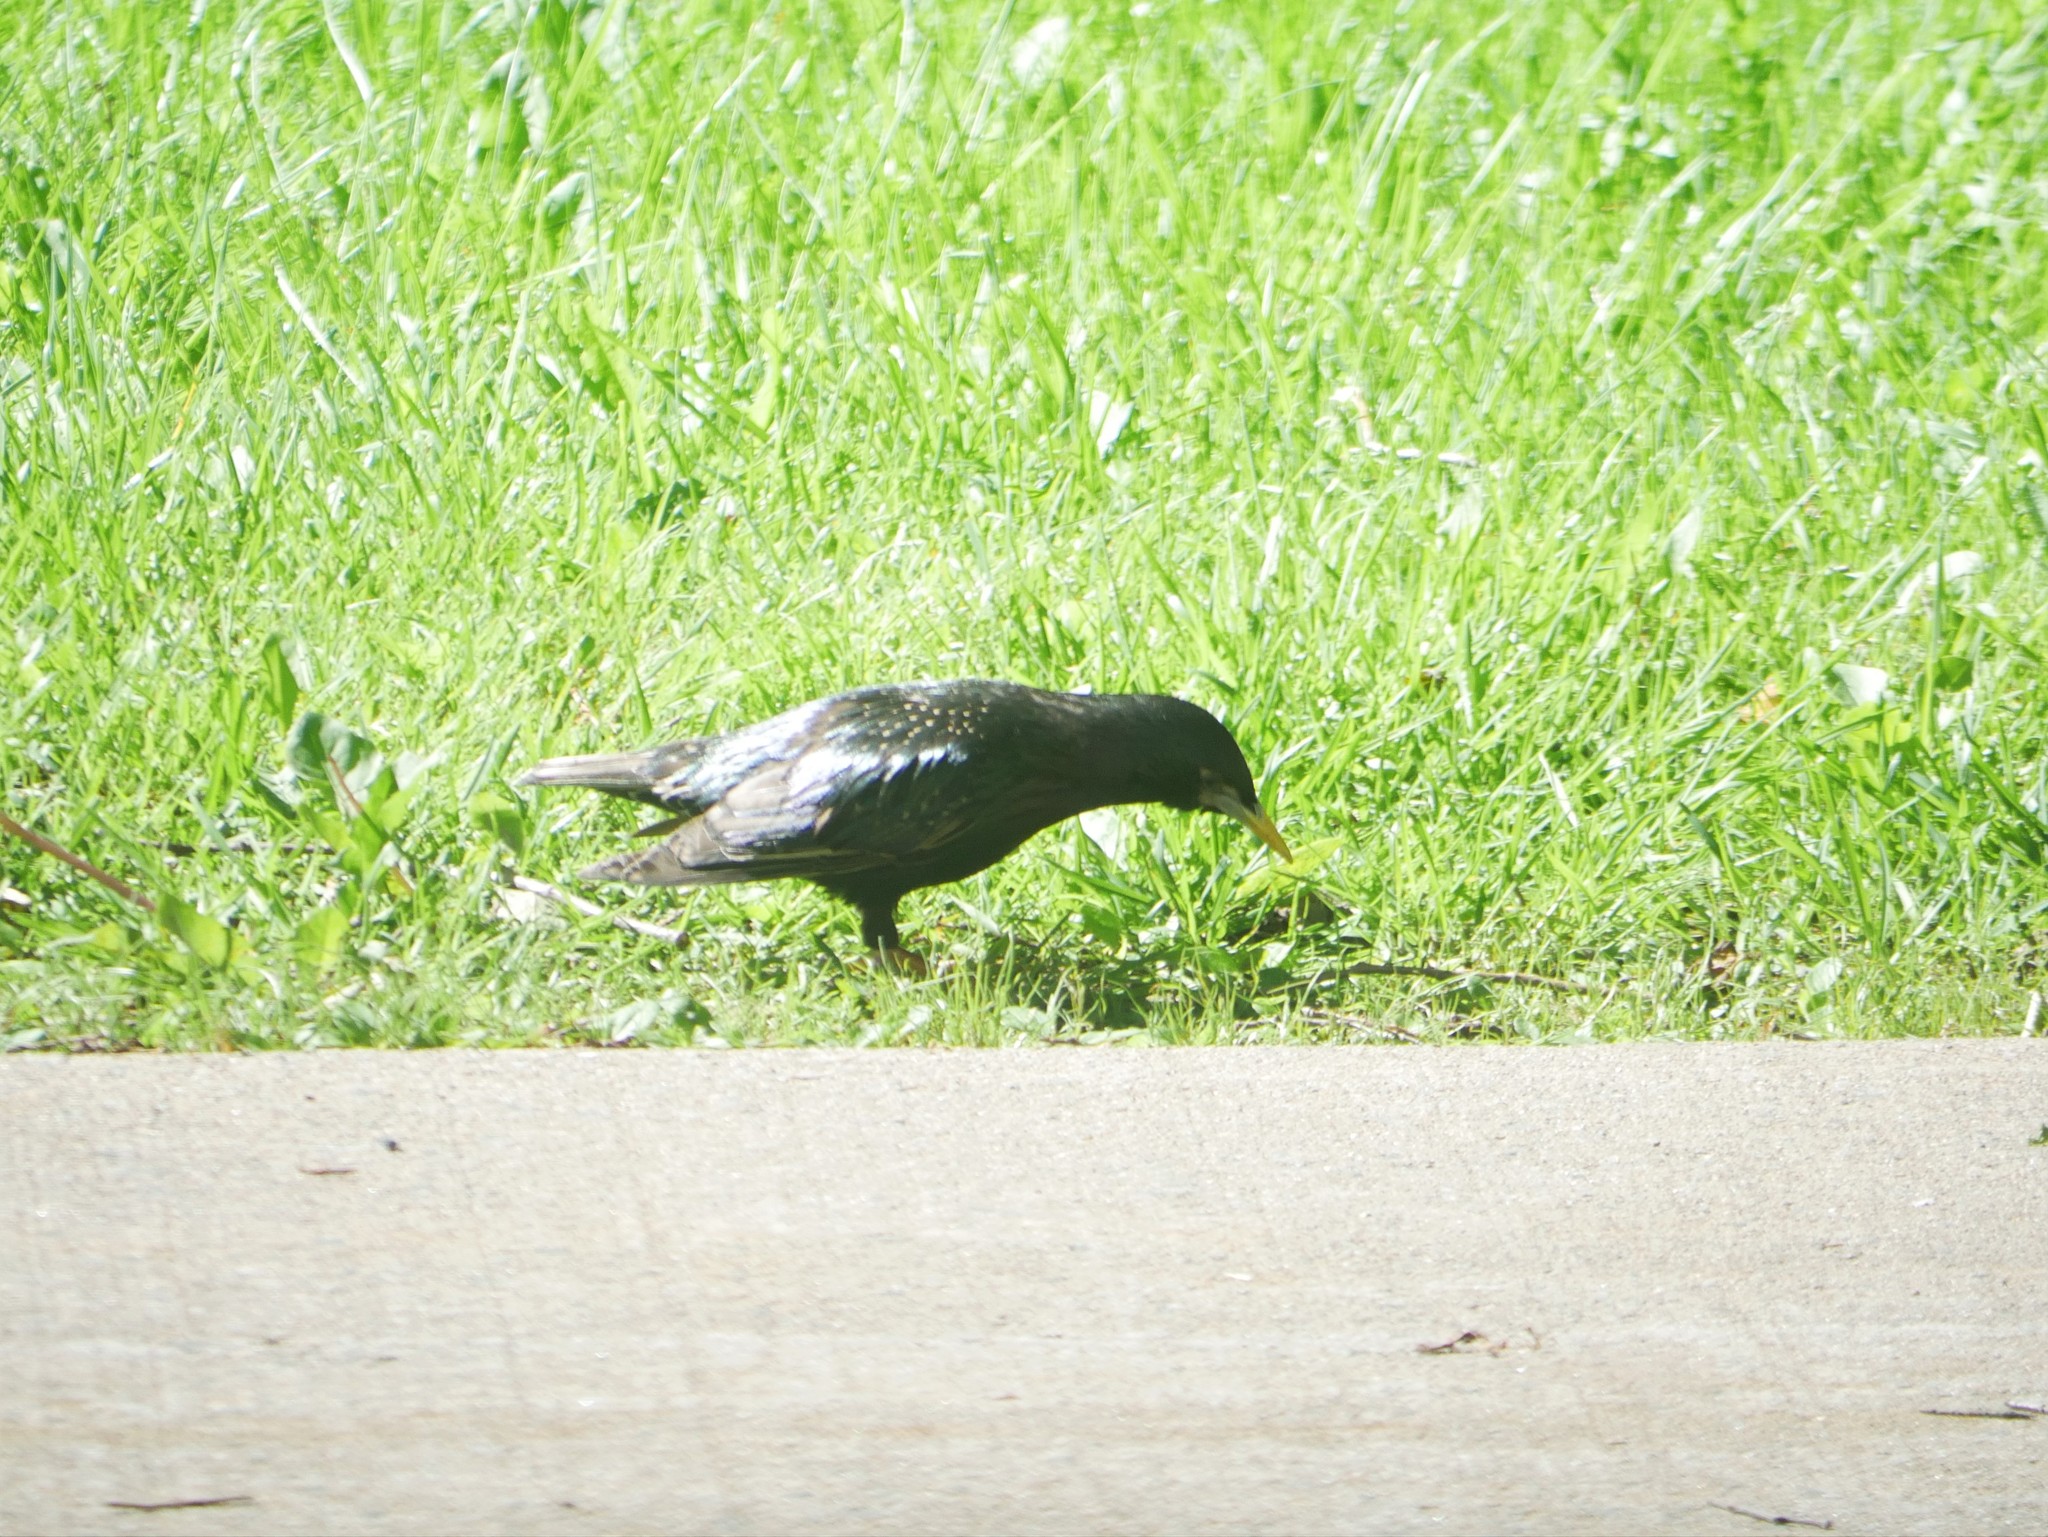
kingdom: Animalia
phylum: Chordata
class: Aves
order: Passeriformes
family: Sturnidae
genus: Sturnus
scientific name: Sturnus vulgaris
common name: Common starling
